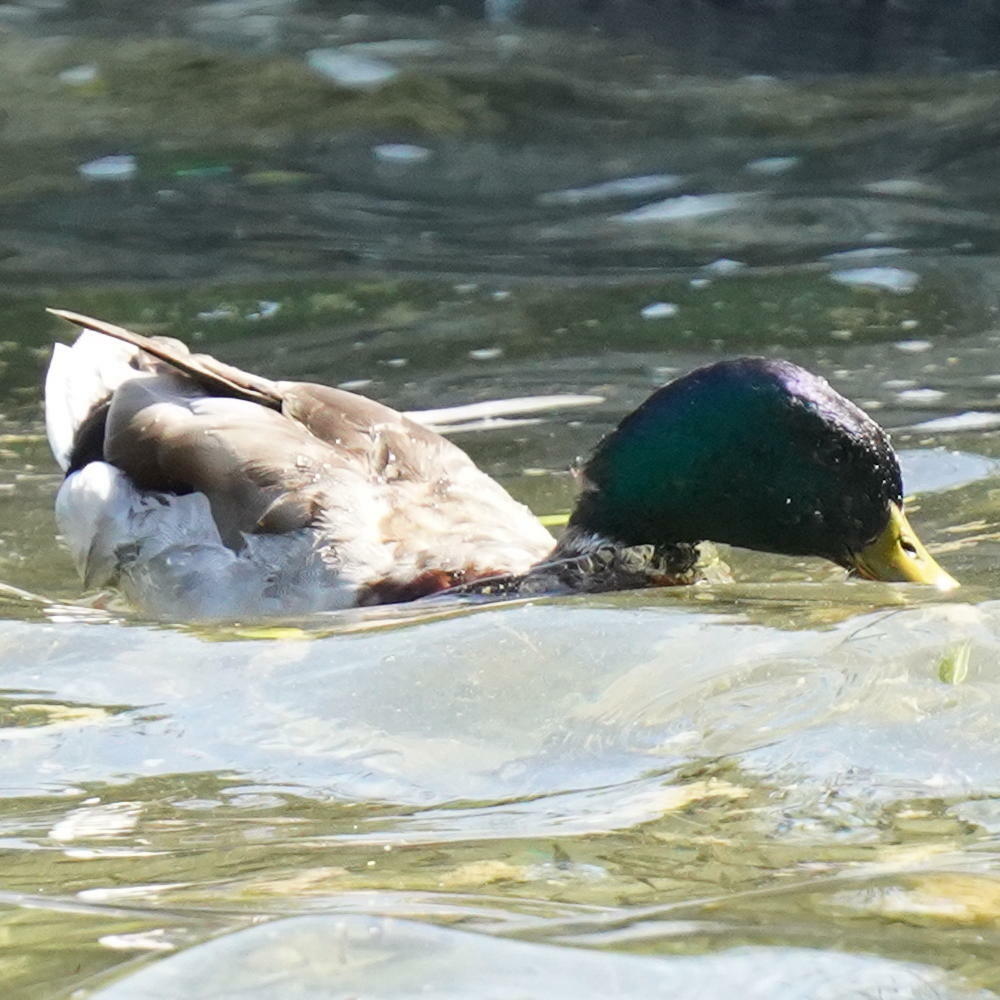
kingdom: Animalia
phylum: Chordata
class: Aves
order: Anseriformes
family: Anatidae
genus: Anas
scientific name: Anas platyrhynchos
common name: Mallard
